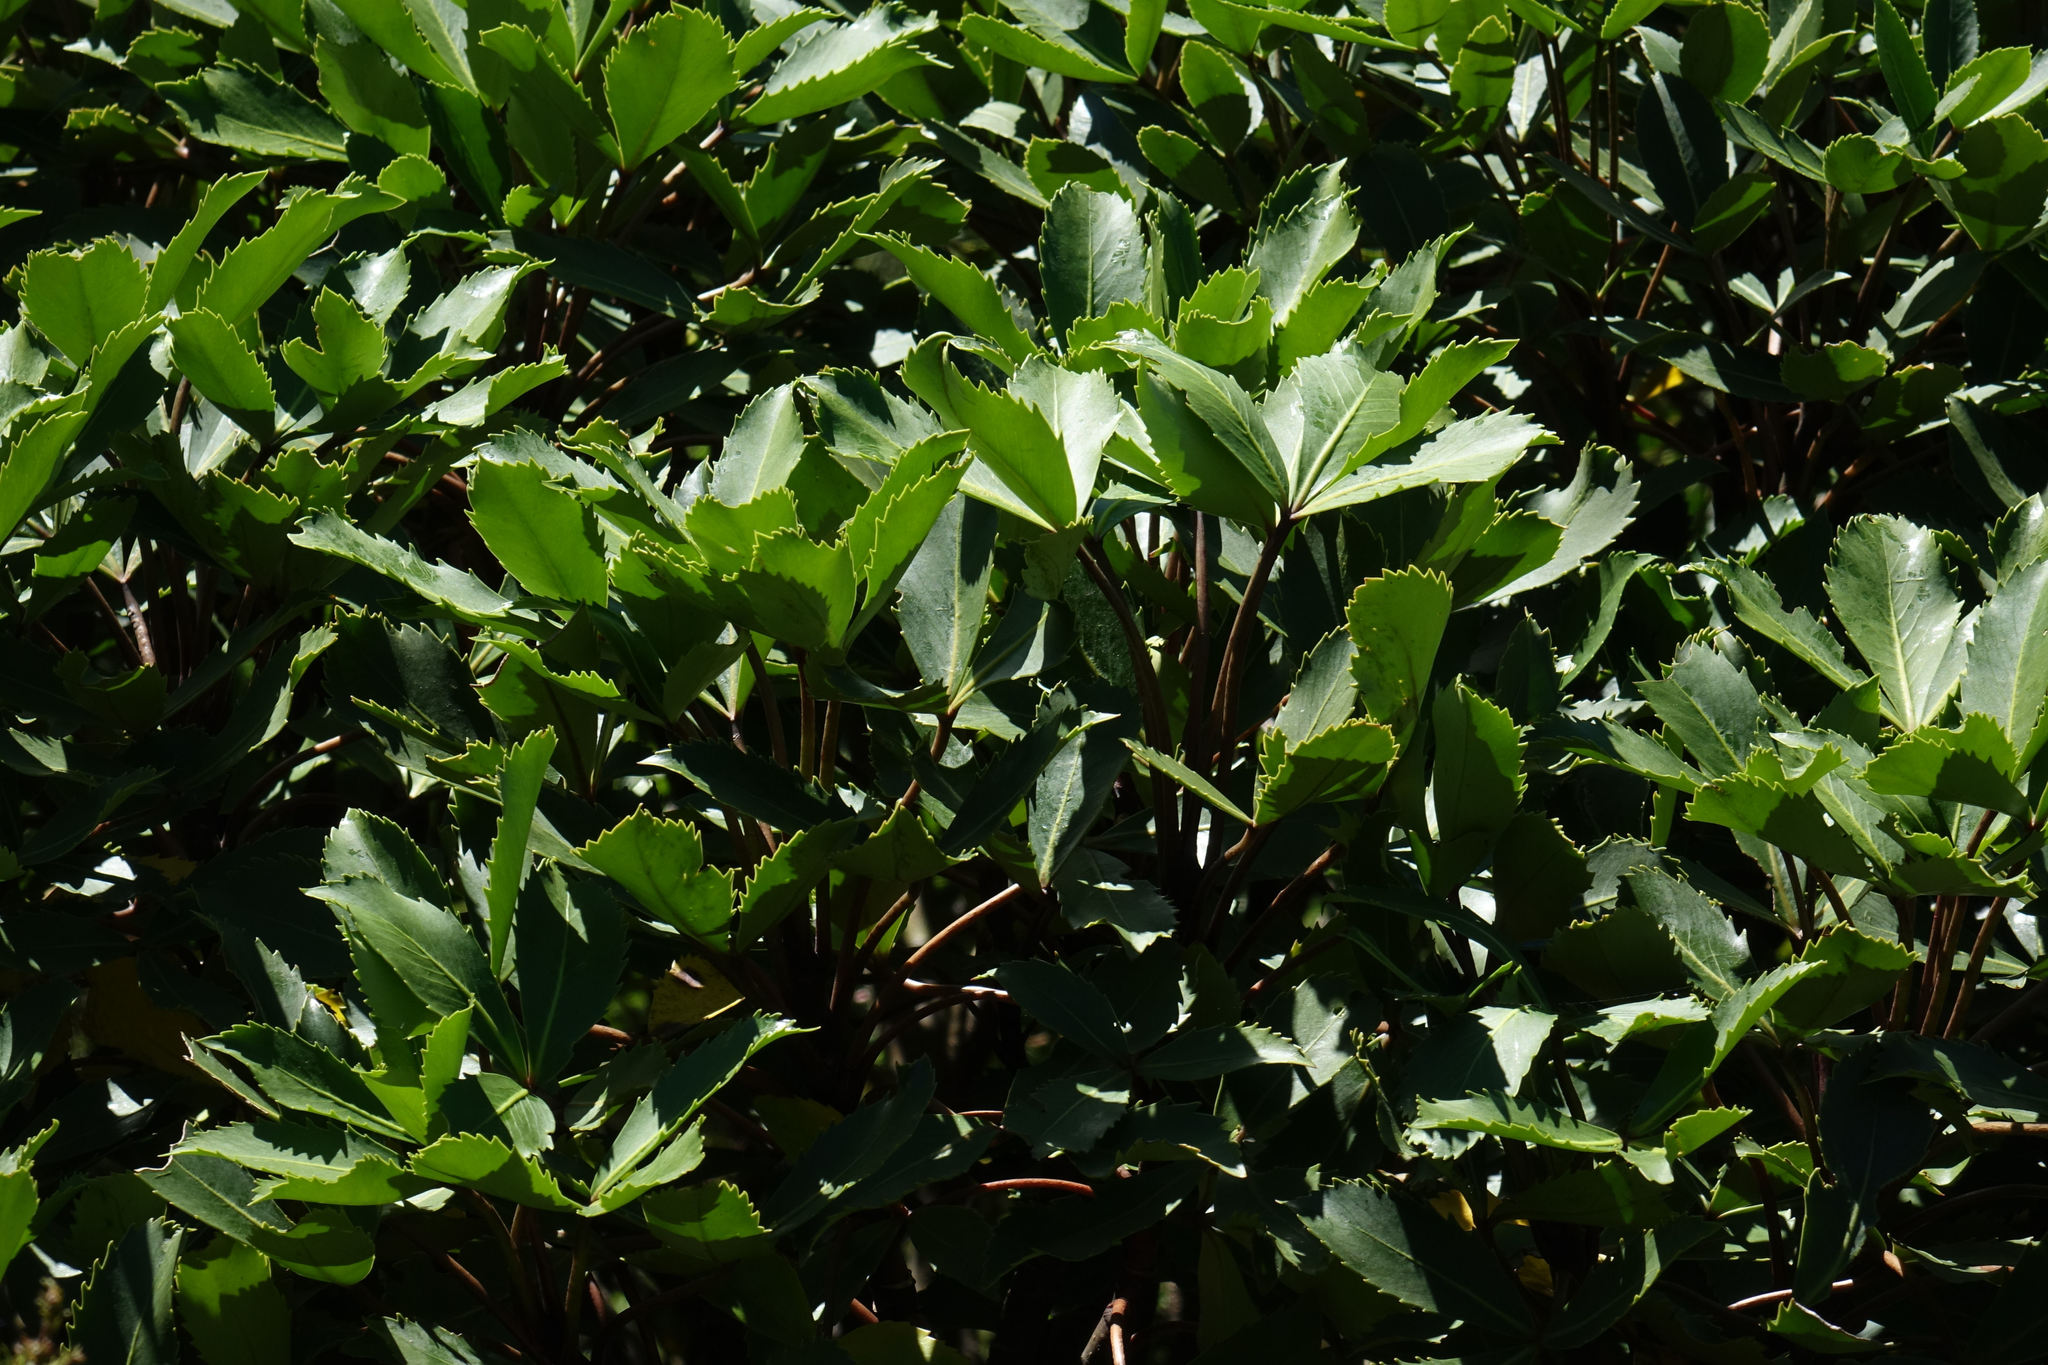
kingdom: Plantae
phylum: Tracheophyta
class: Magnoliopsida
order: Apiales
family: Araliaceae
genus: Neopanax
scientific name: Neopanax colensoi
